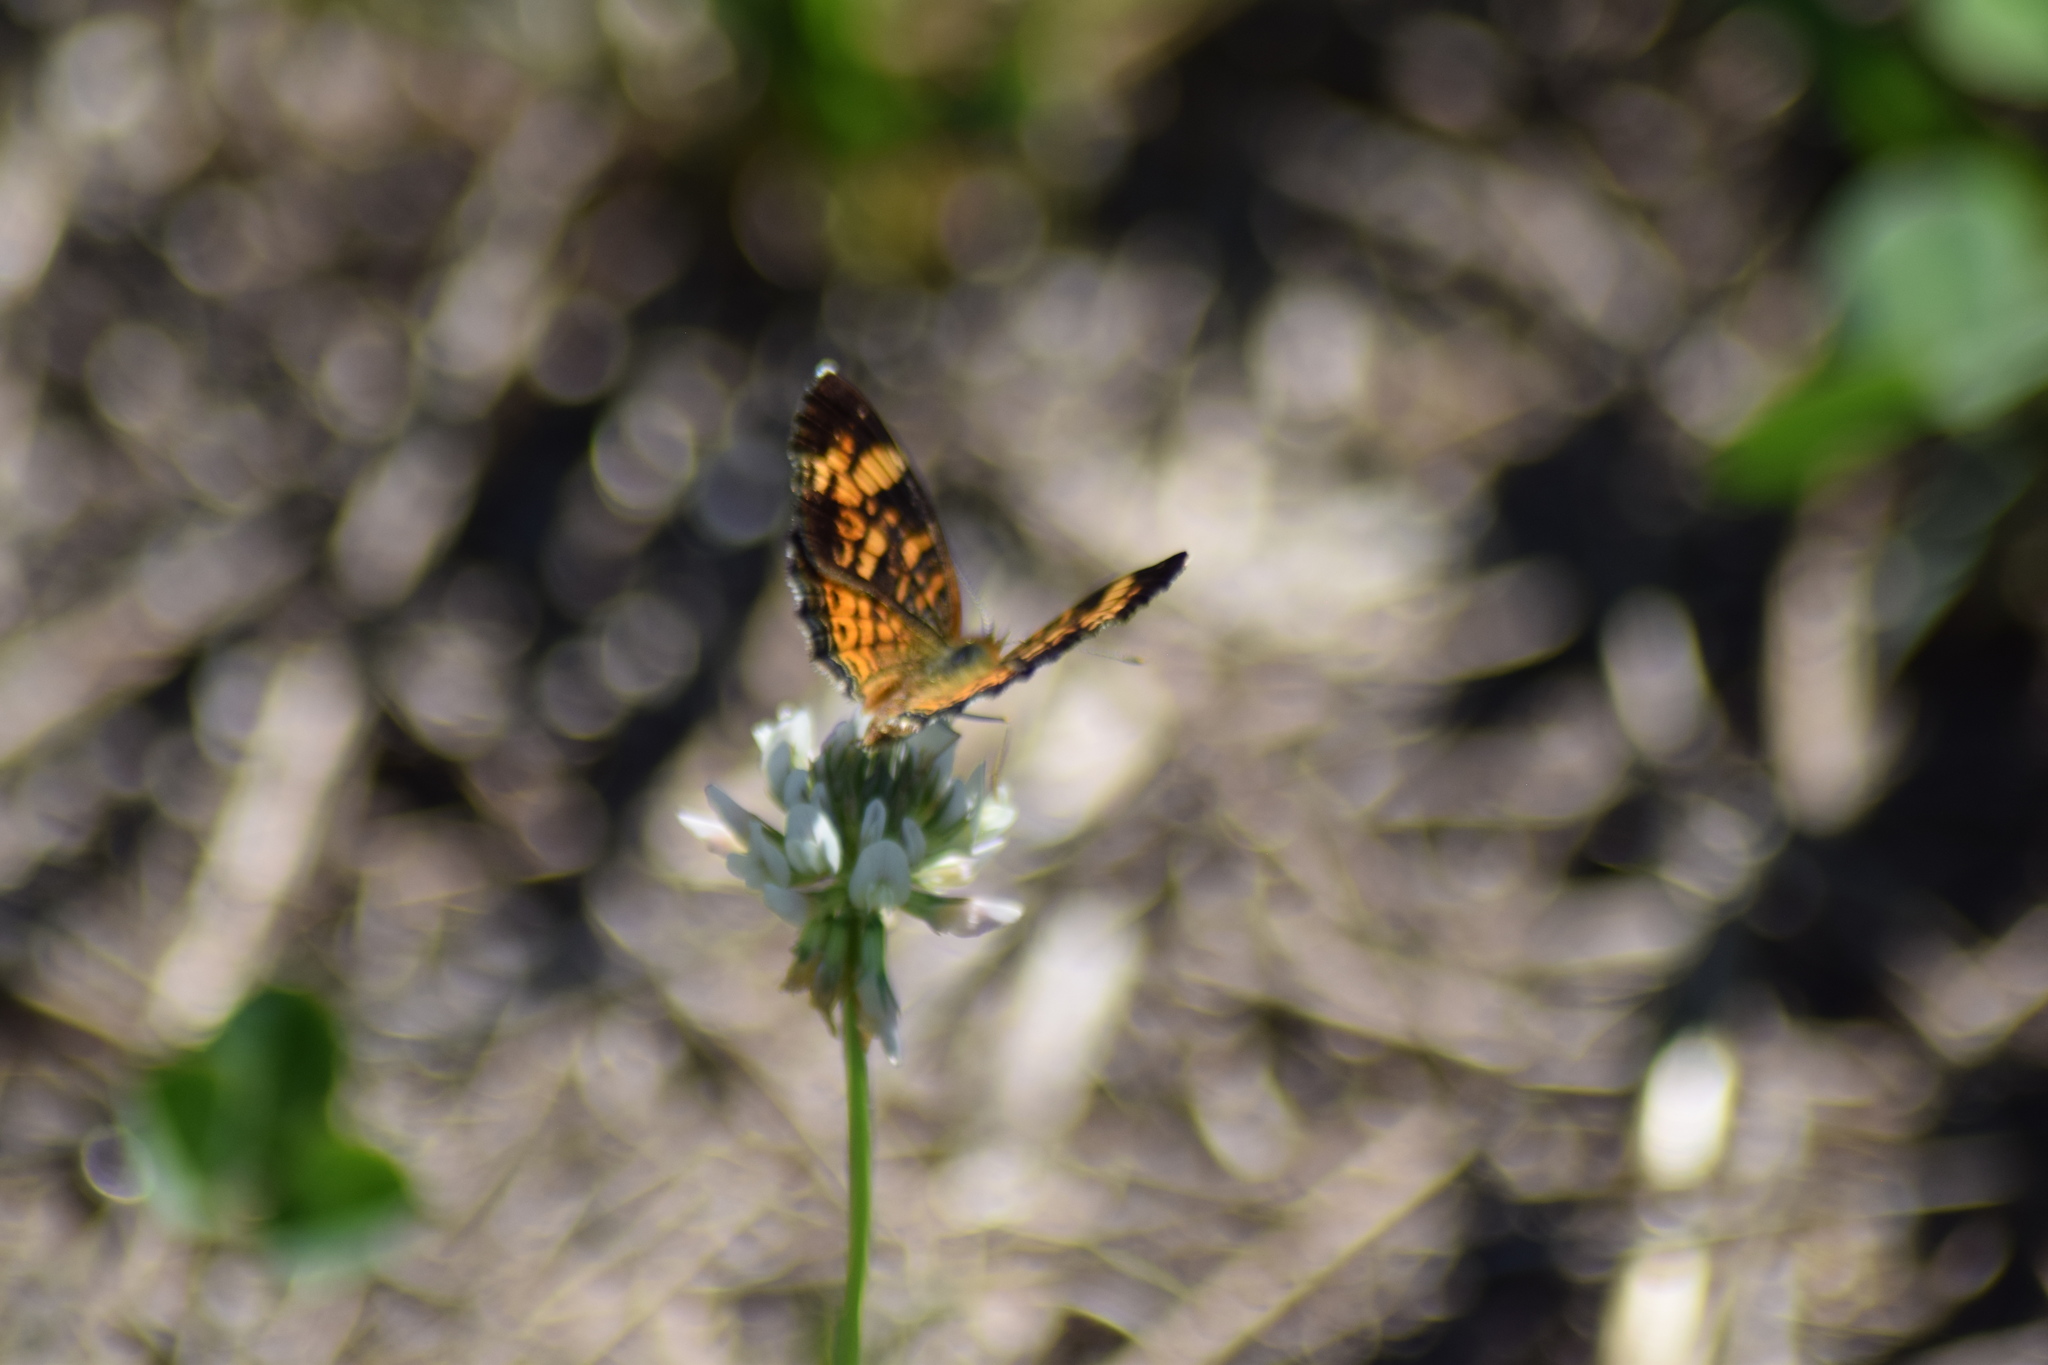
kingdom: Animalia
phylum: Arthropoda
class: Insecta
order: Lepidoptera
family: Nymphalidae
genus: Phyciodes
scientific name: Phyciodes tharos
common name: Pearl crescent
